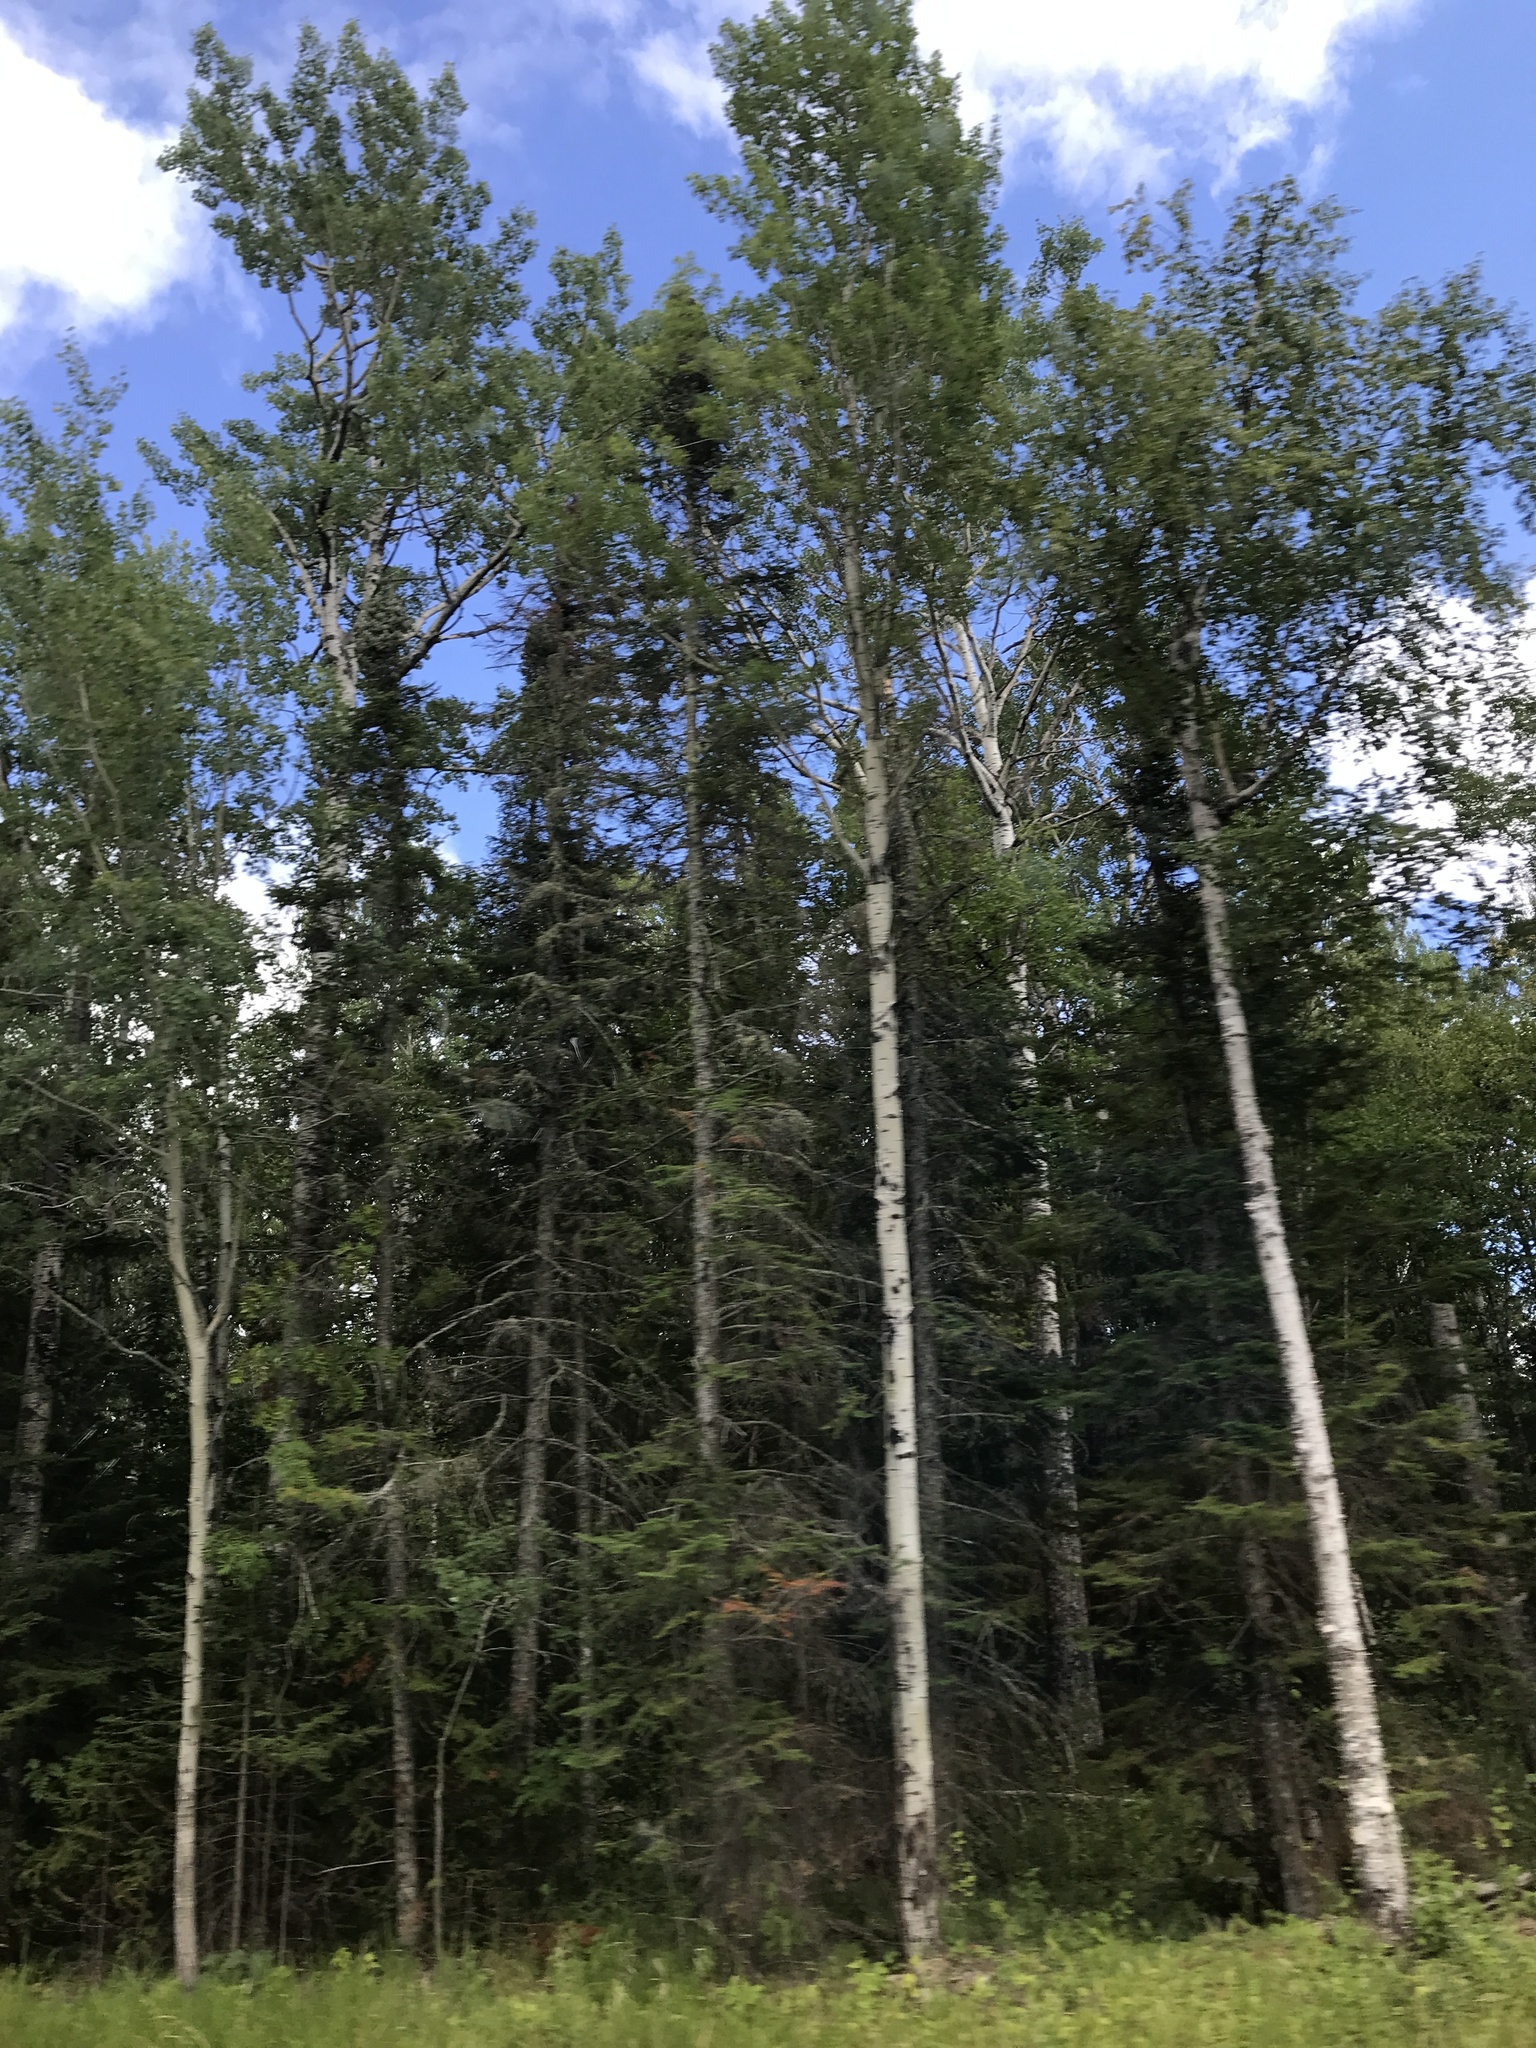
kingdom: Plantae
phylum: Tracheophyta
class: Magnoliopsida
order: Malpighiales
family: Salicaceae
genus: Populus
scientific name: Populus tremuloides
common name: Quaking aspen
